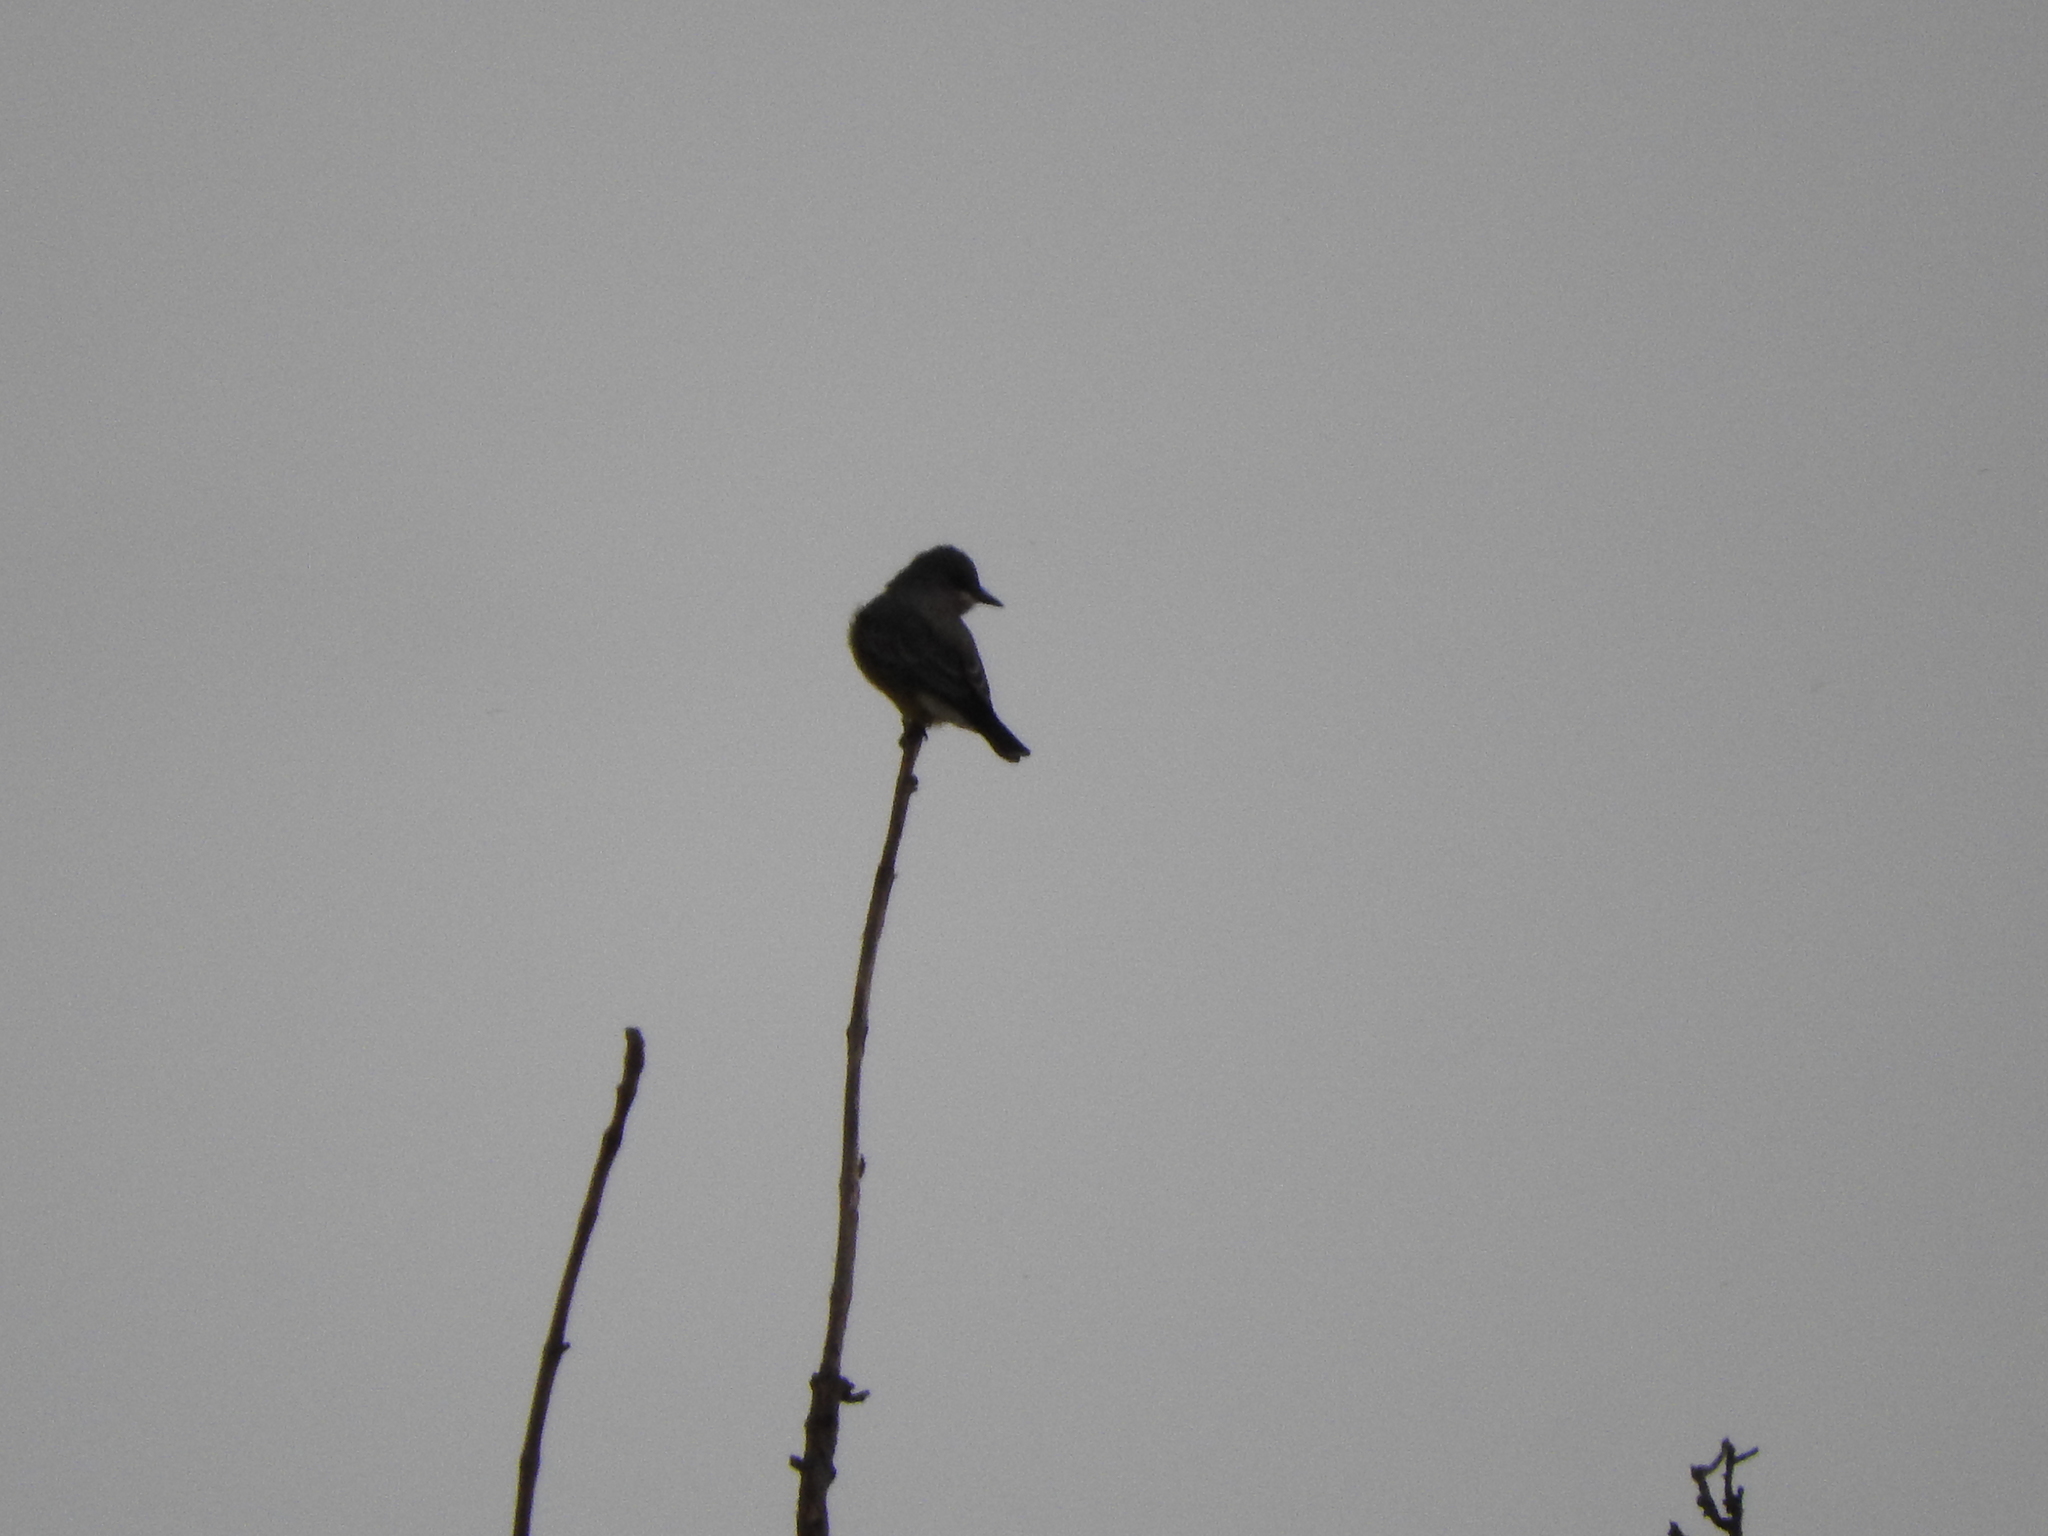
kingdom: Animalia
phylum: Chordata
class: Aves
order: Passeriformes
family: Tyrannidae
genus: Tyrannus
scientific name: Tyrannus vociferans
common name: Cassin's kingbird
